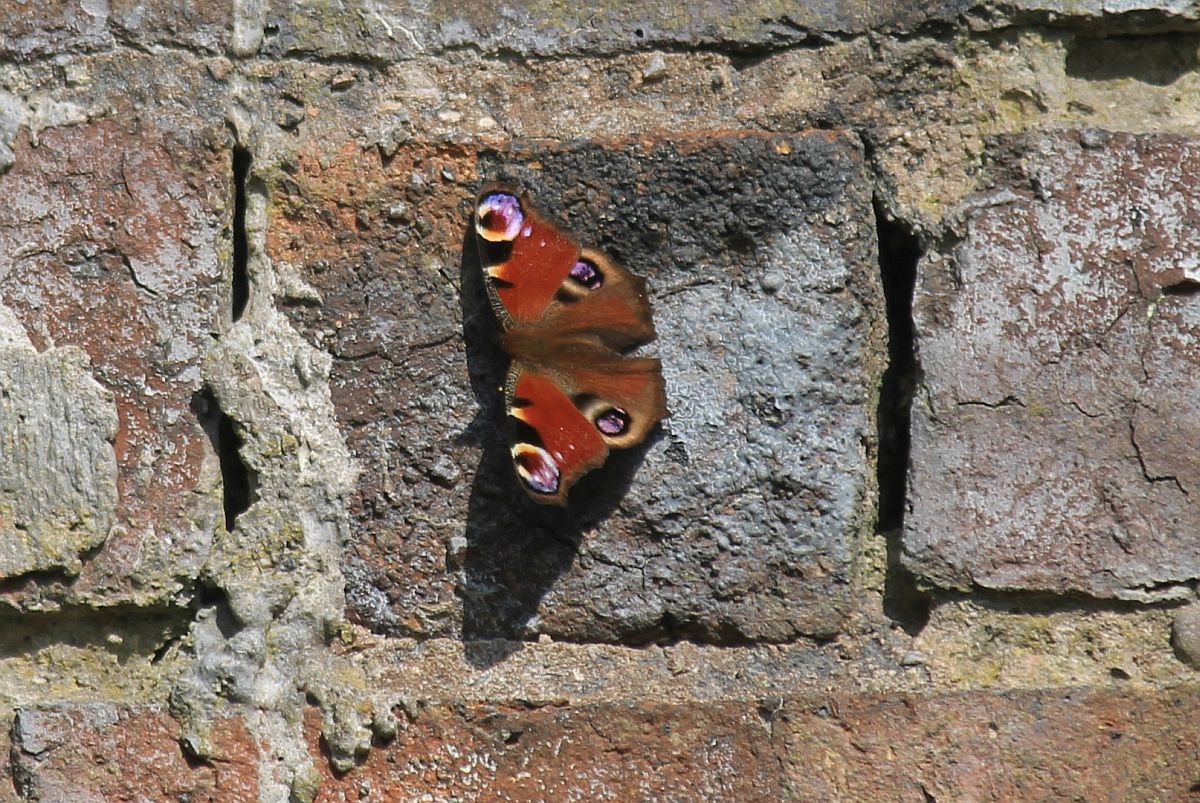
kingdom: Animalia
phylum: Arthropoda
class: Insecta
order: Lepidoptera
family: Nymphalidae
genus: Aglais
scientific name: Aglais io
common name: Peacock
